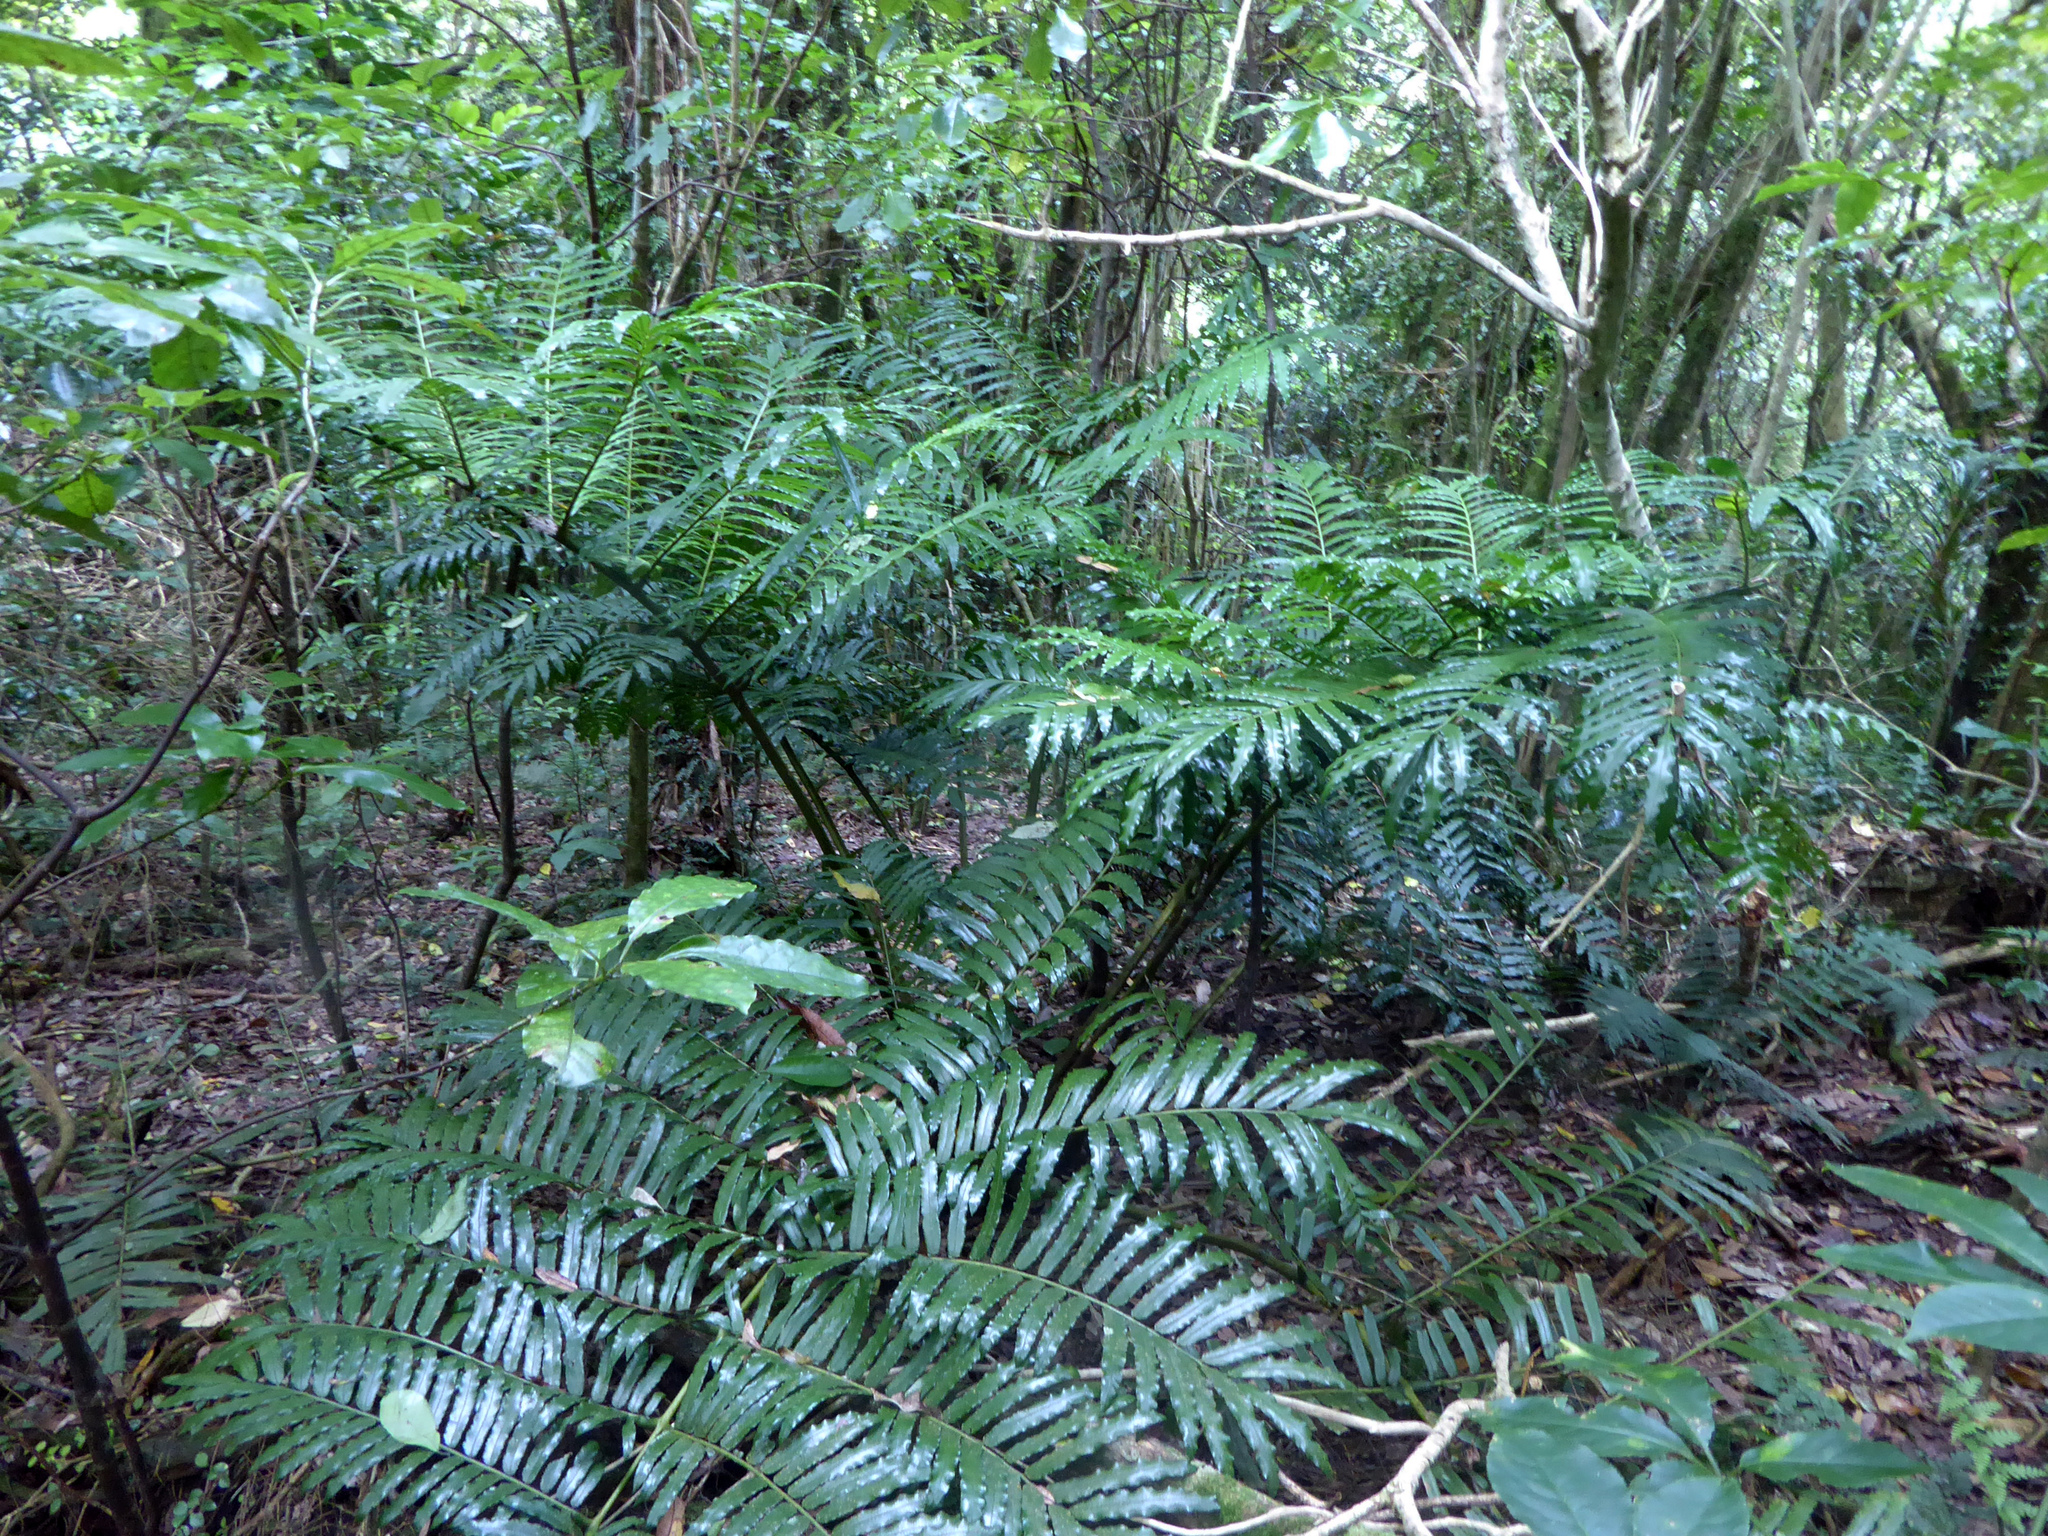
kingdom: Plantae
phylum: Tracheophyta
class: Polypodiopsida
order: Marattiales
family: Marattiaceae
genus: Ptisana
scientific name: Ptisana salicina
